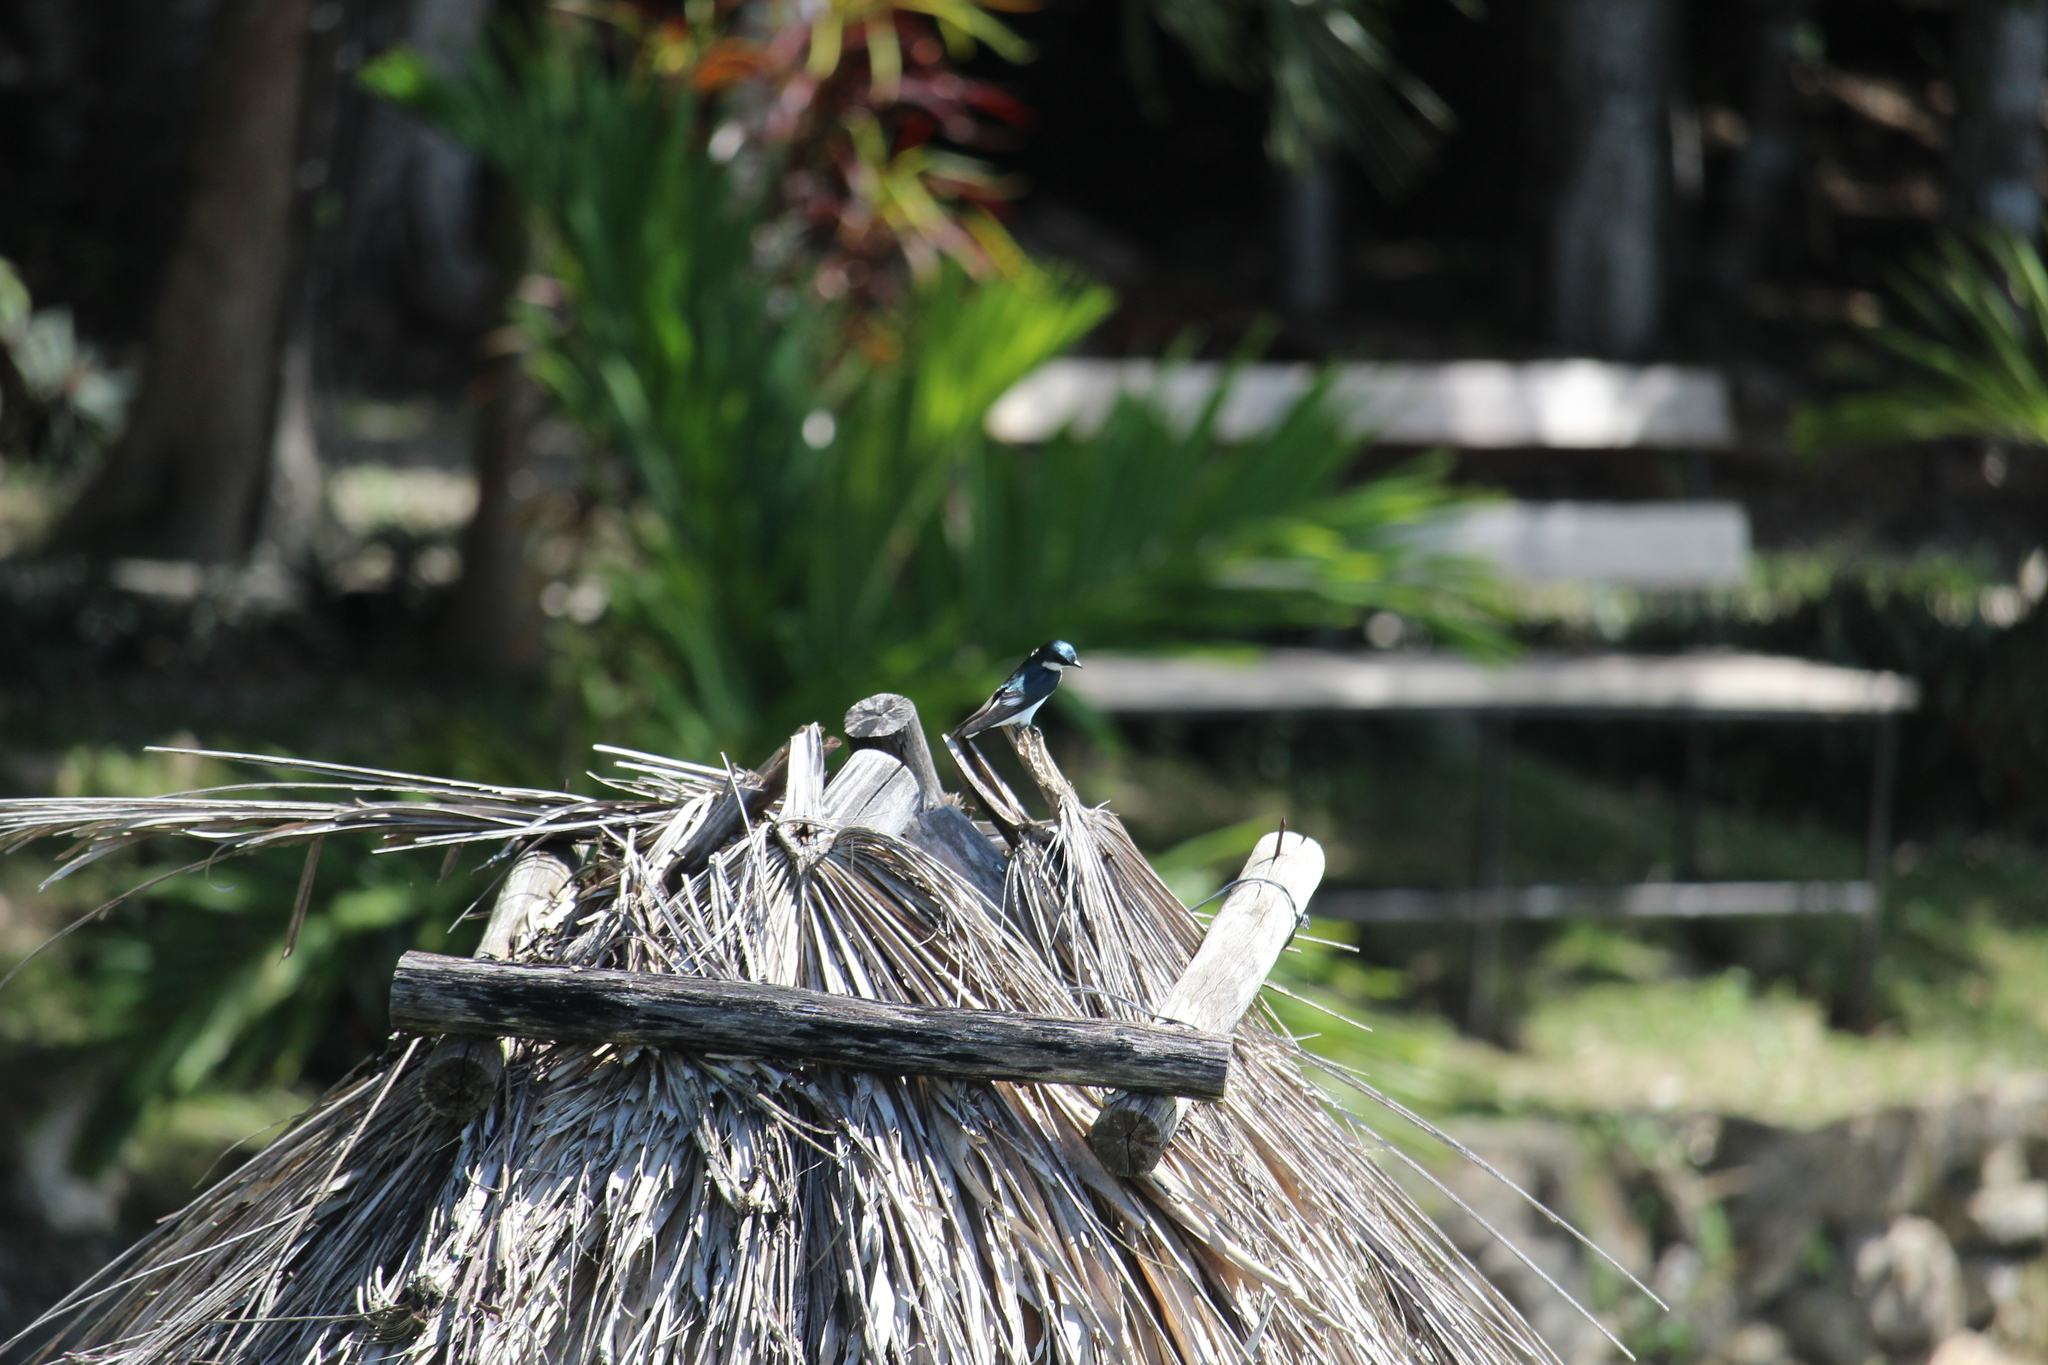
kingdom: Animalia
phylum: Chordata
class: Aves
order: Passeriformes
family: Hirundinidae
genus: Tachycineta
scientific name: Tachycineta albilinea
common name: Mangrove swallow
